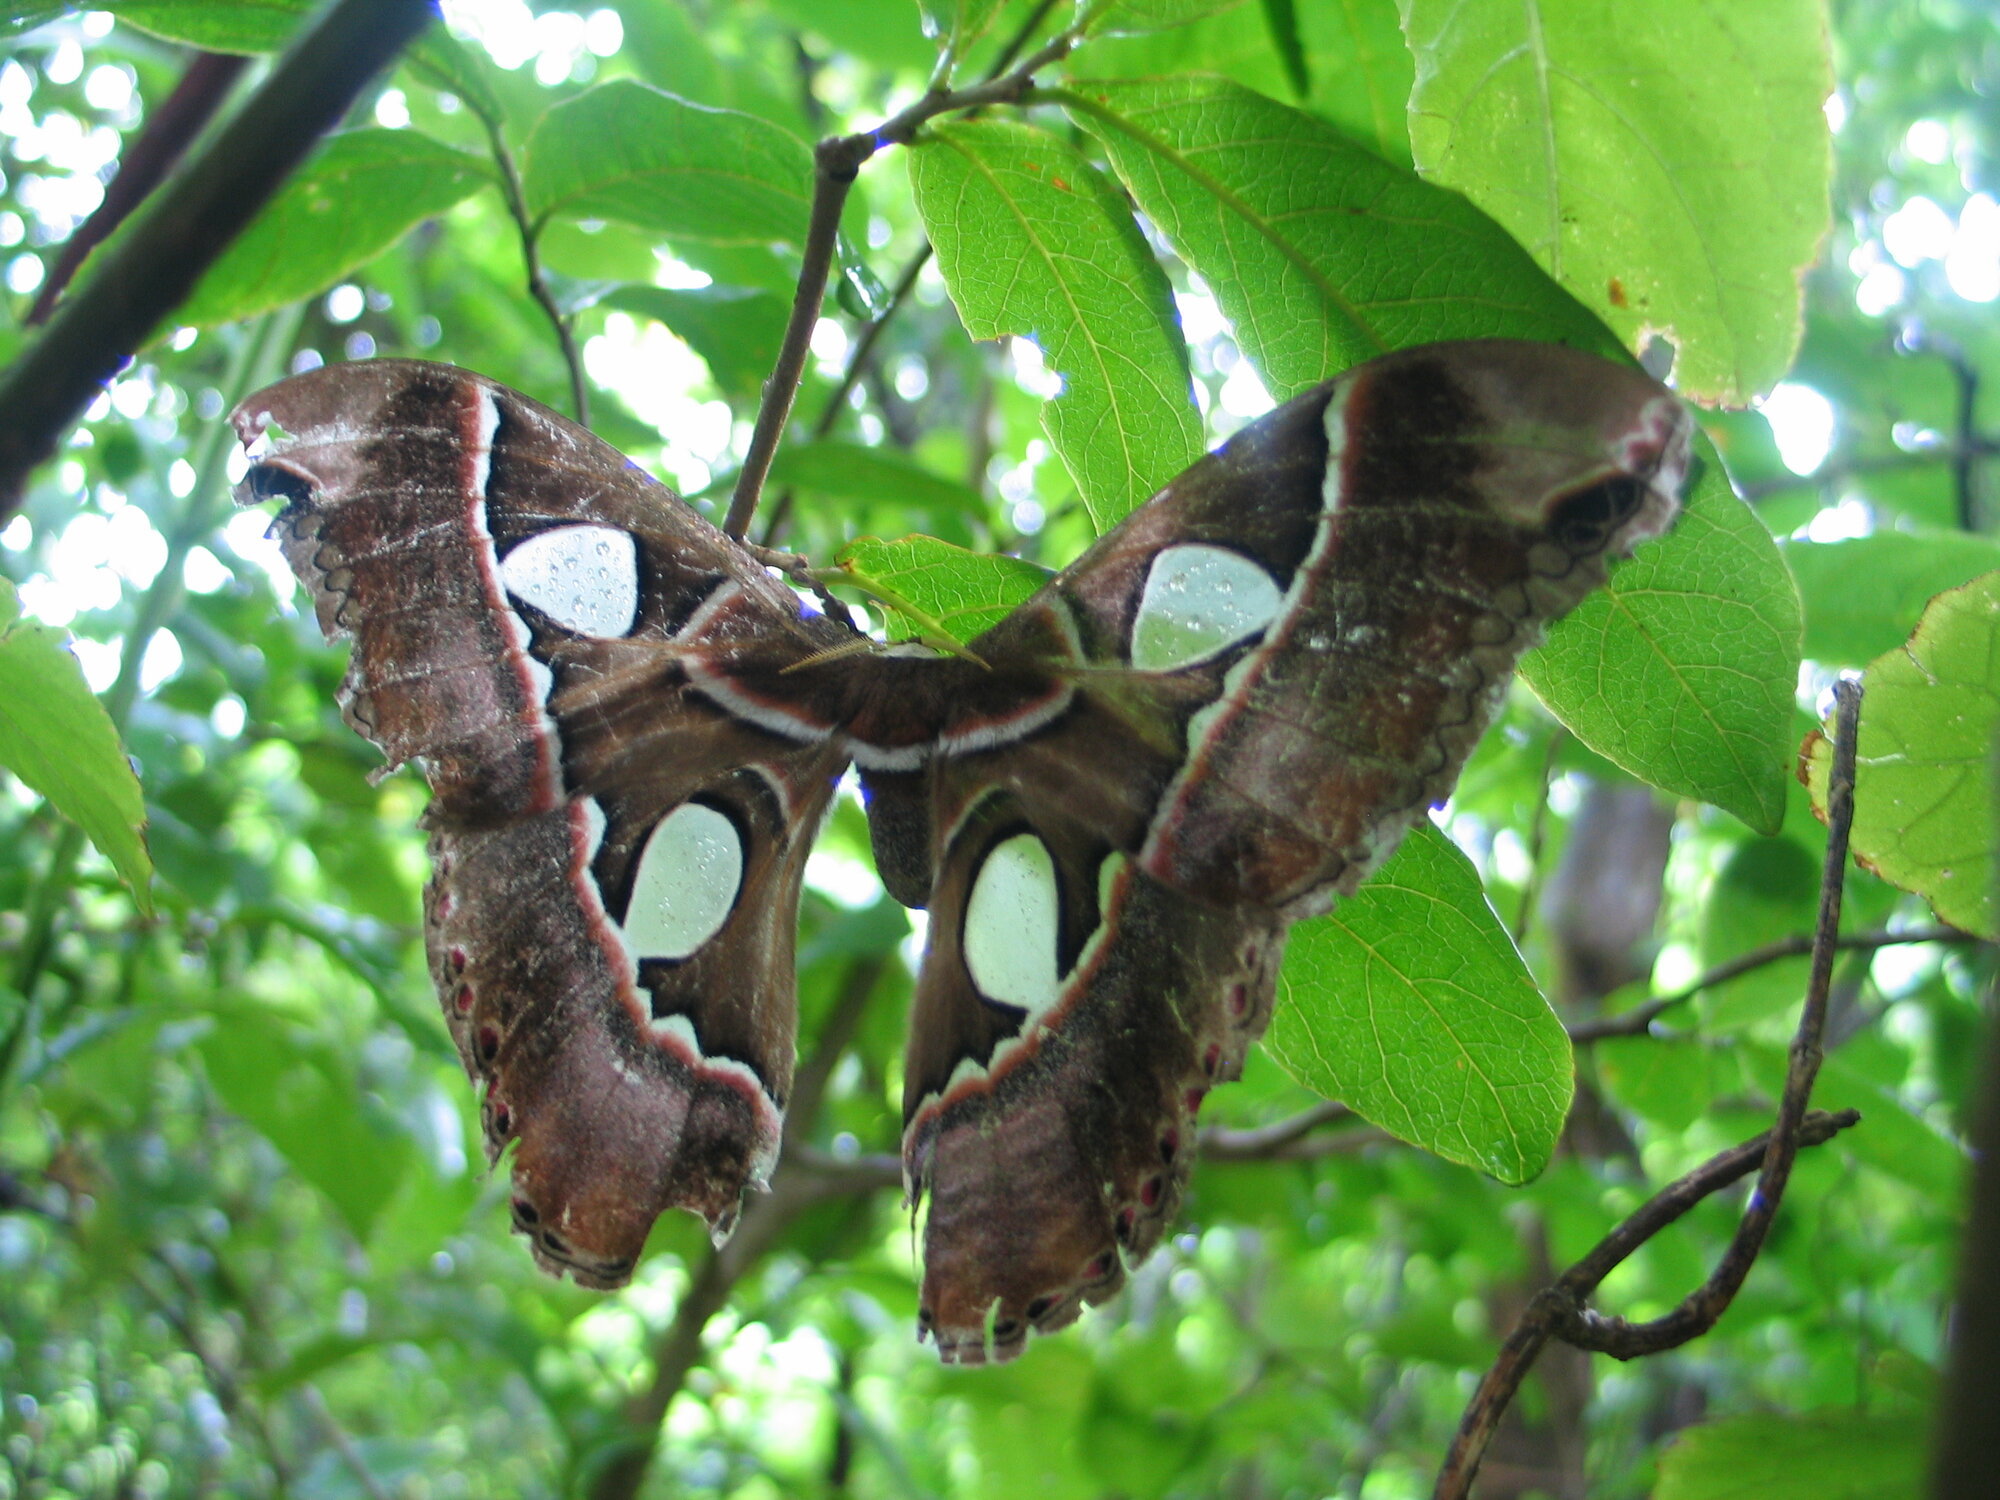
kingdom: Animalia
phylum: Arthropoda
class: Insecta
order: Lepidoptera
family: Saturniidae
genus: Rothschildia
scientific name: Rothschildia lebeau
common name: Lebeau's rothschildia
